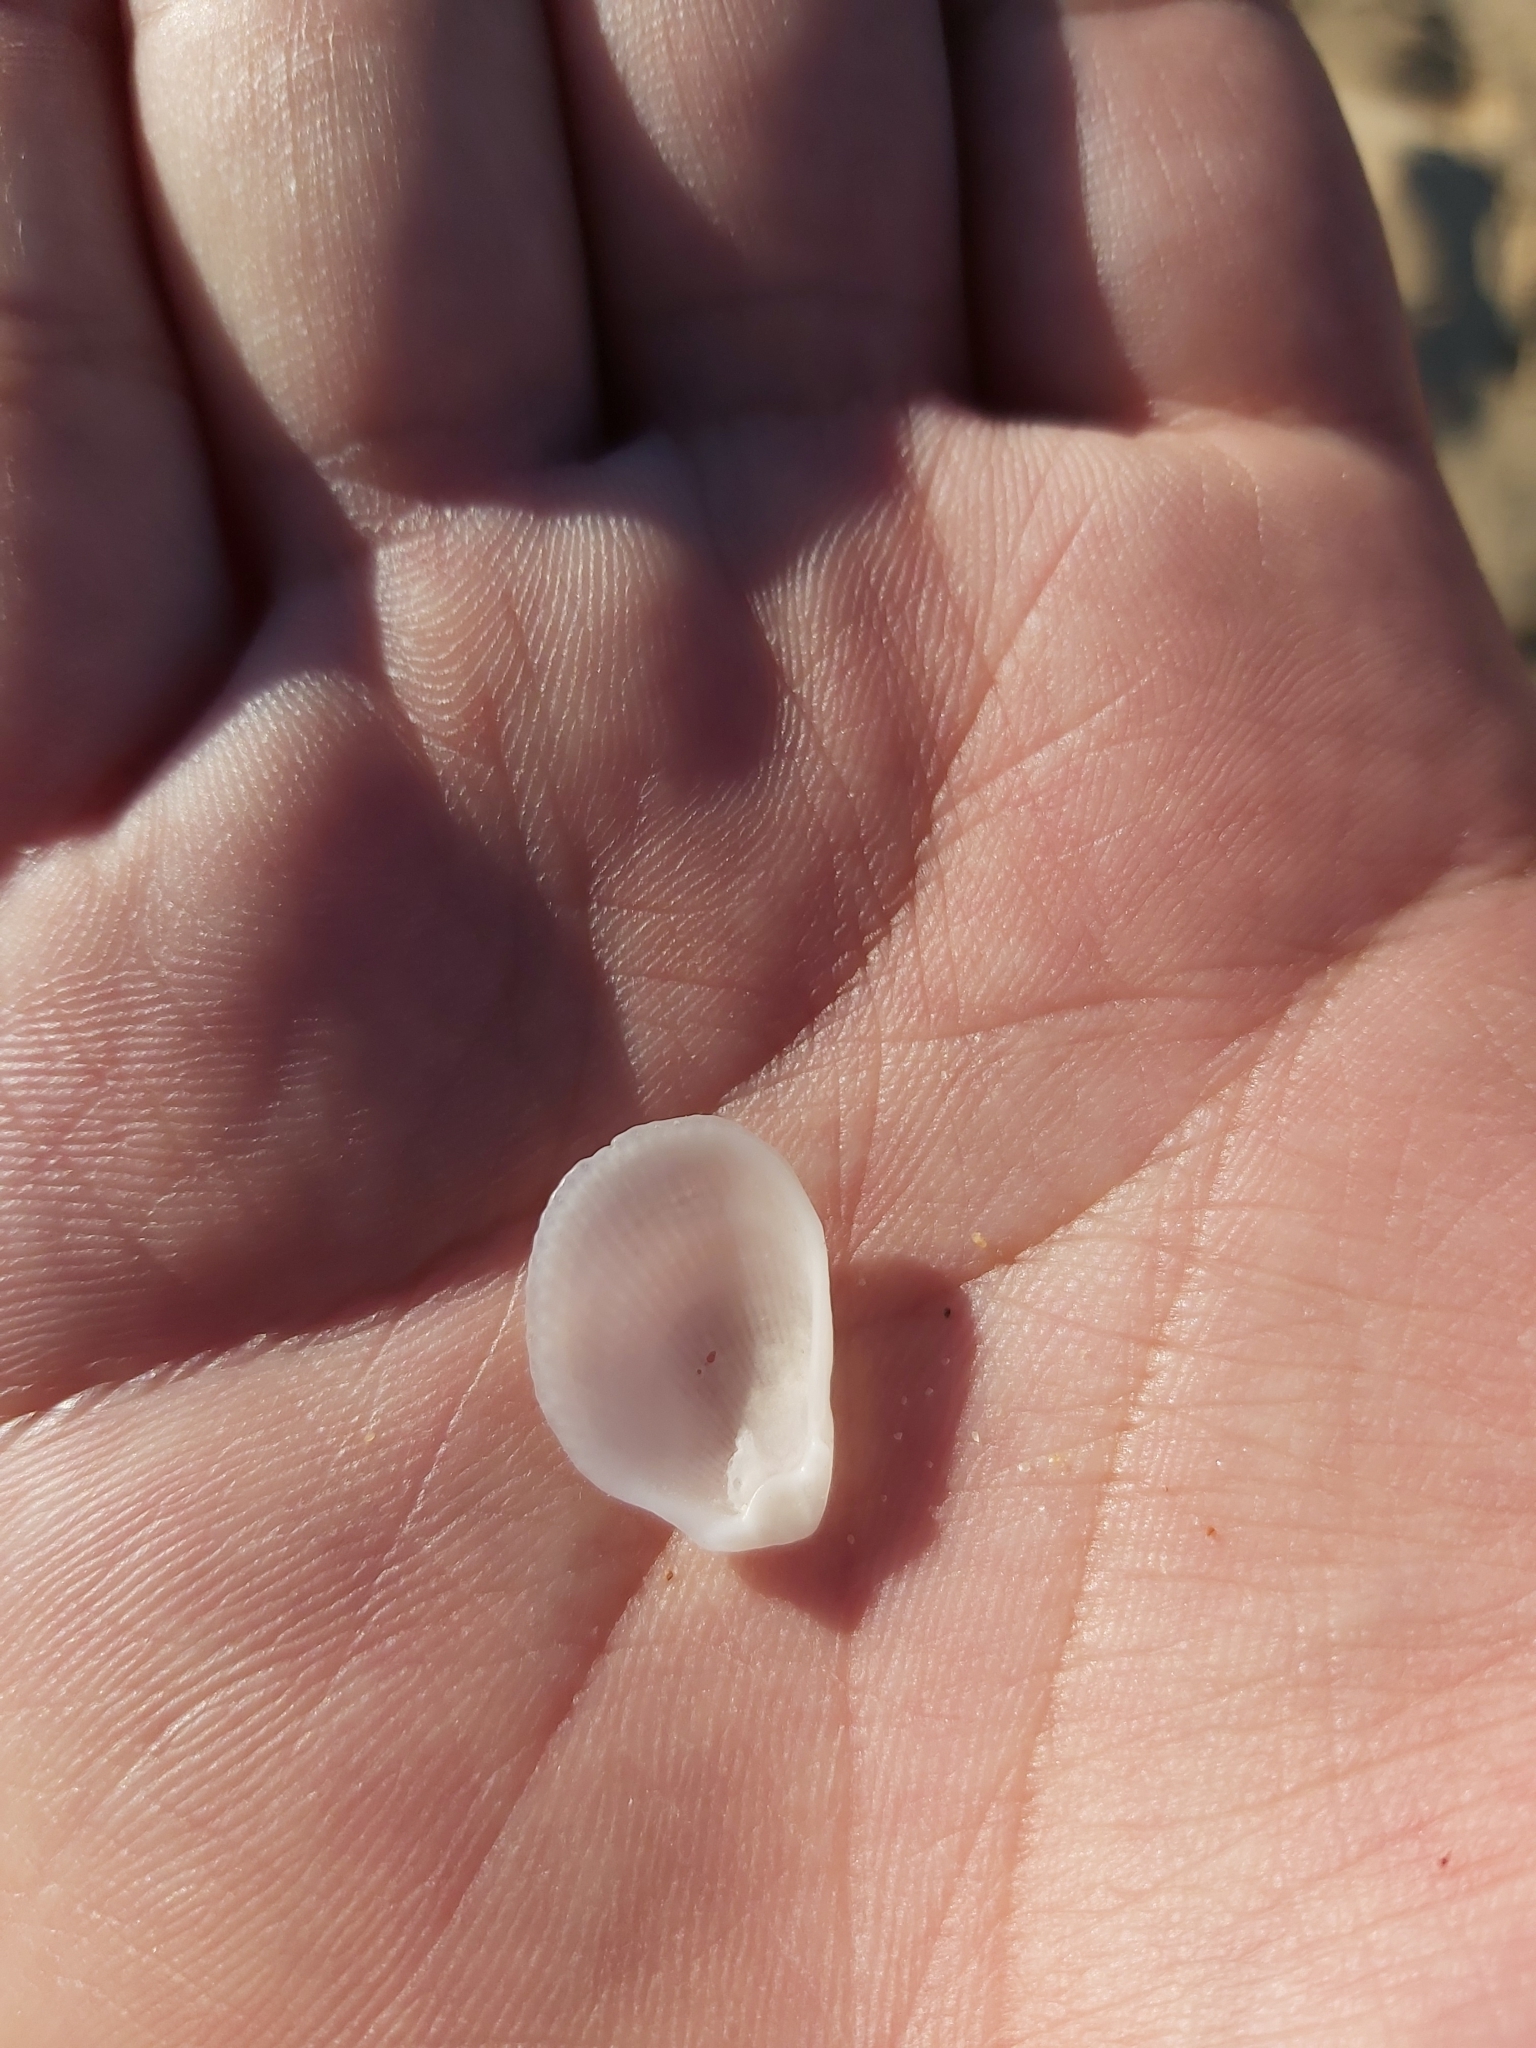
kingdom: Animalia
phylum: Mollusca
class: Bivalvia
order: Limida
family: Limidae
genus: Lima
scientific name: Lima nimbifer
